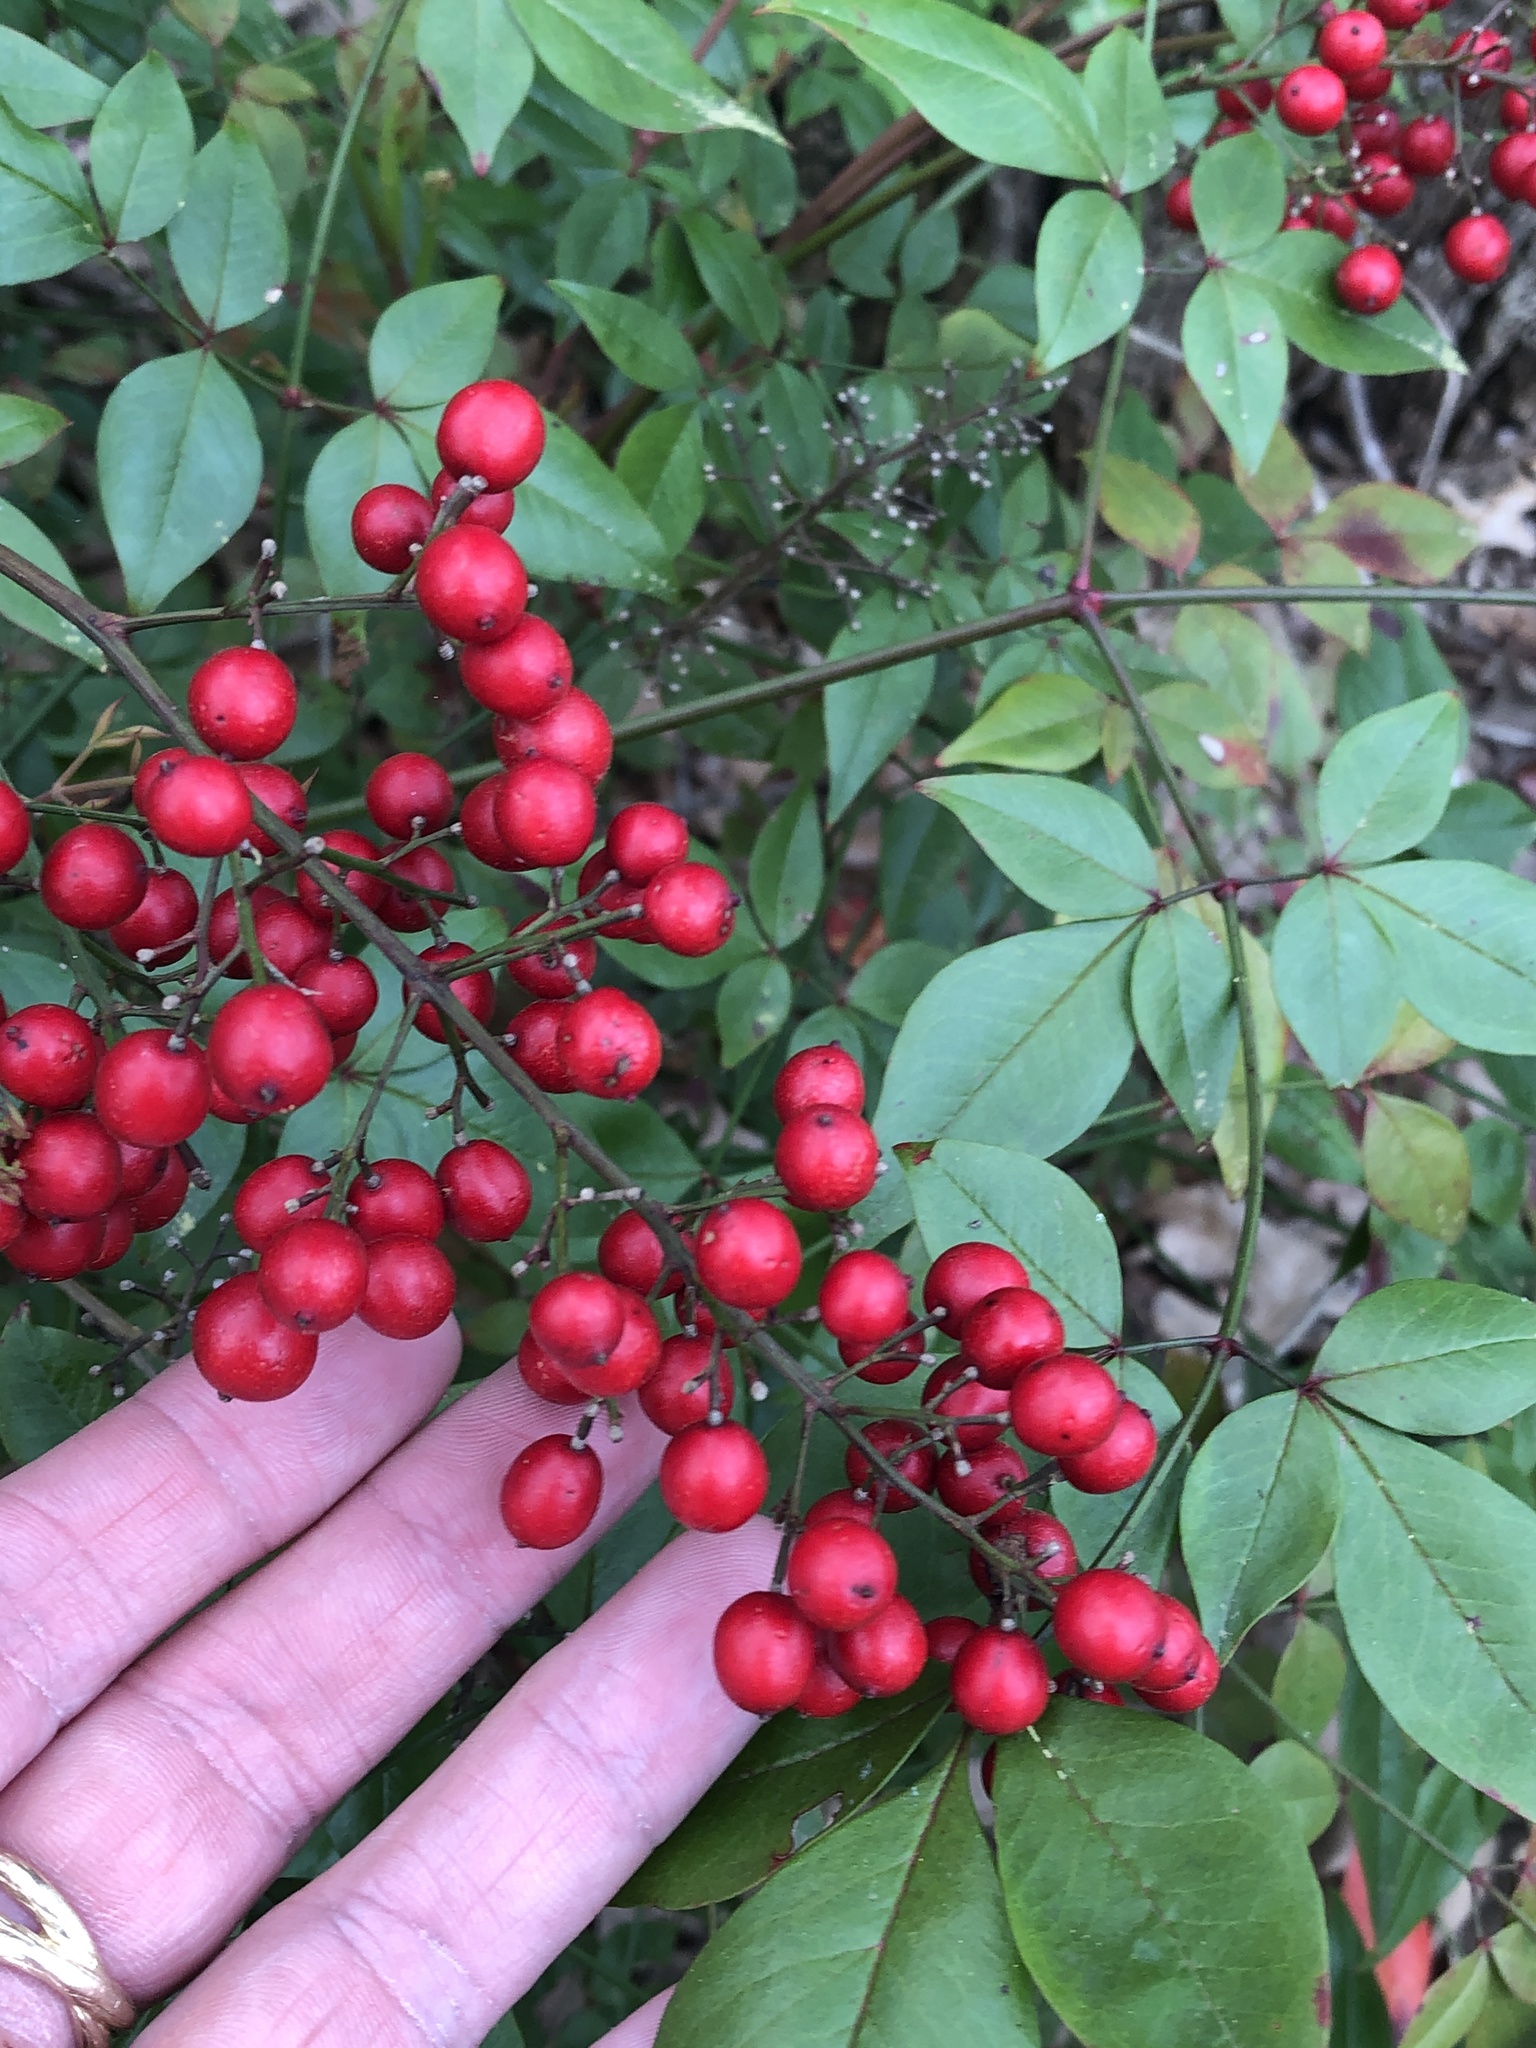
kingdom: Plantae
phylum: Tracheophyta
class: Magnoliopsida
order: Ranunculales
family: Berberidaceae
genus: Nandina
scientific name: Nandina domestica
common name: Sacred bamboo
